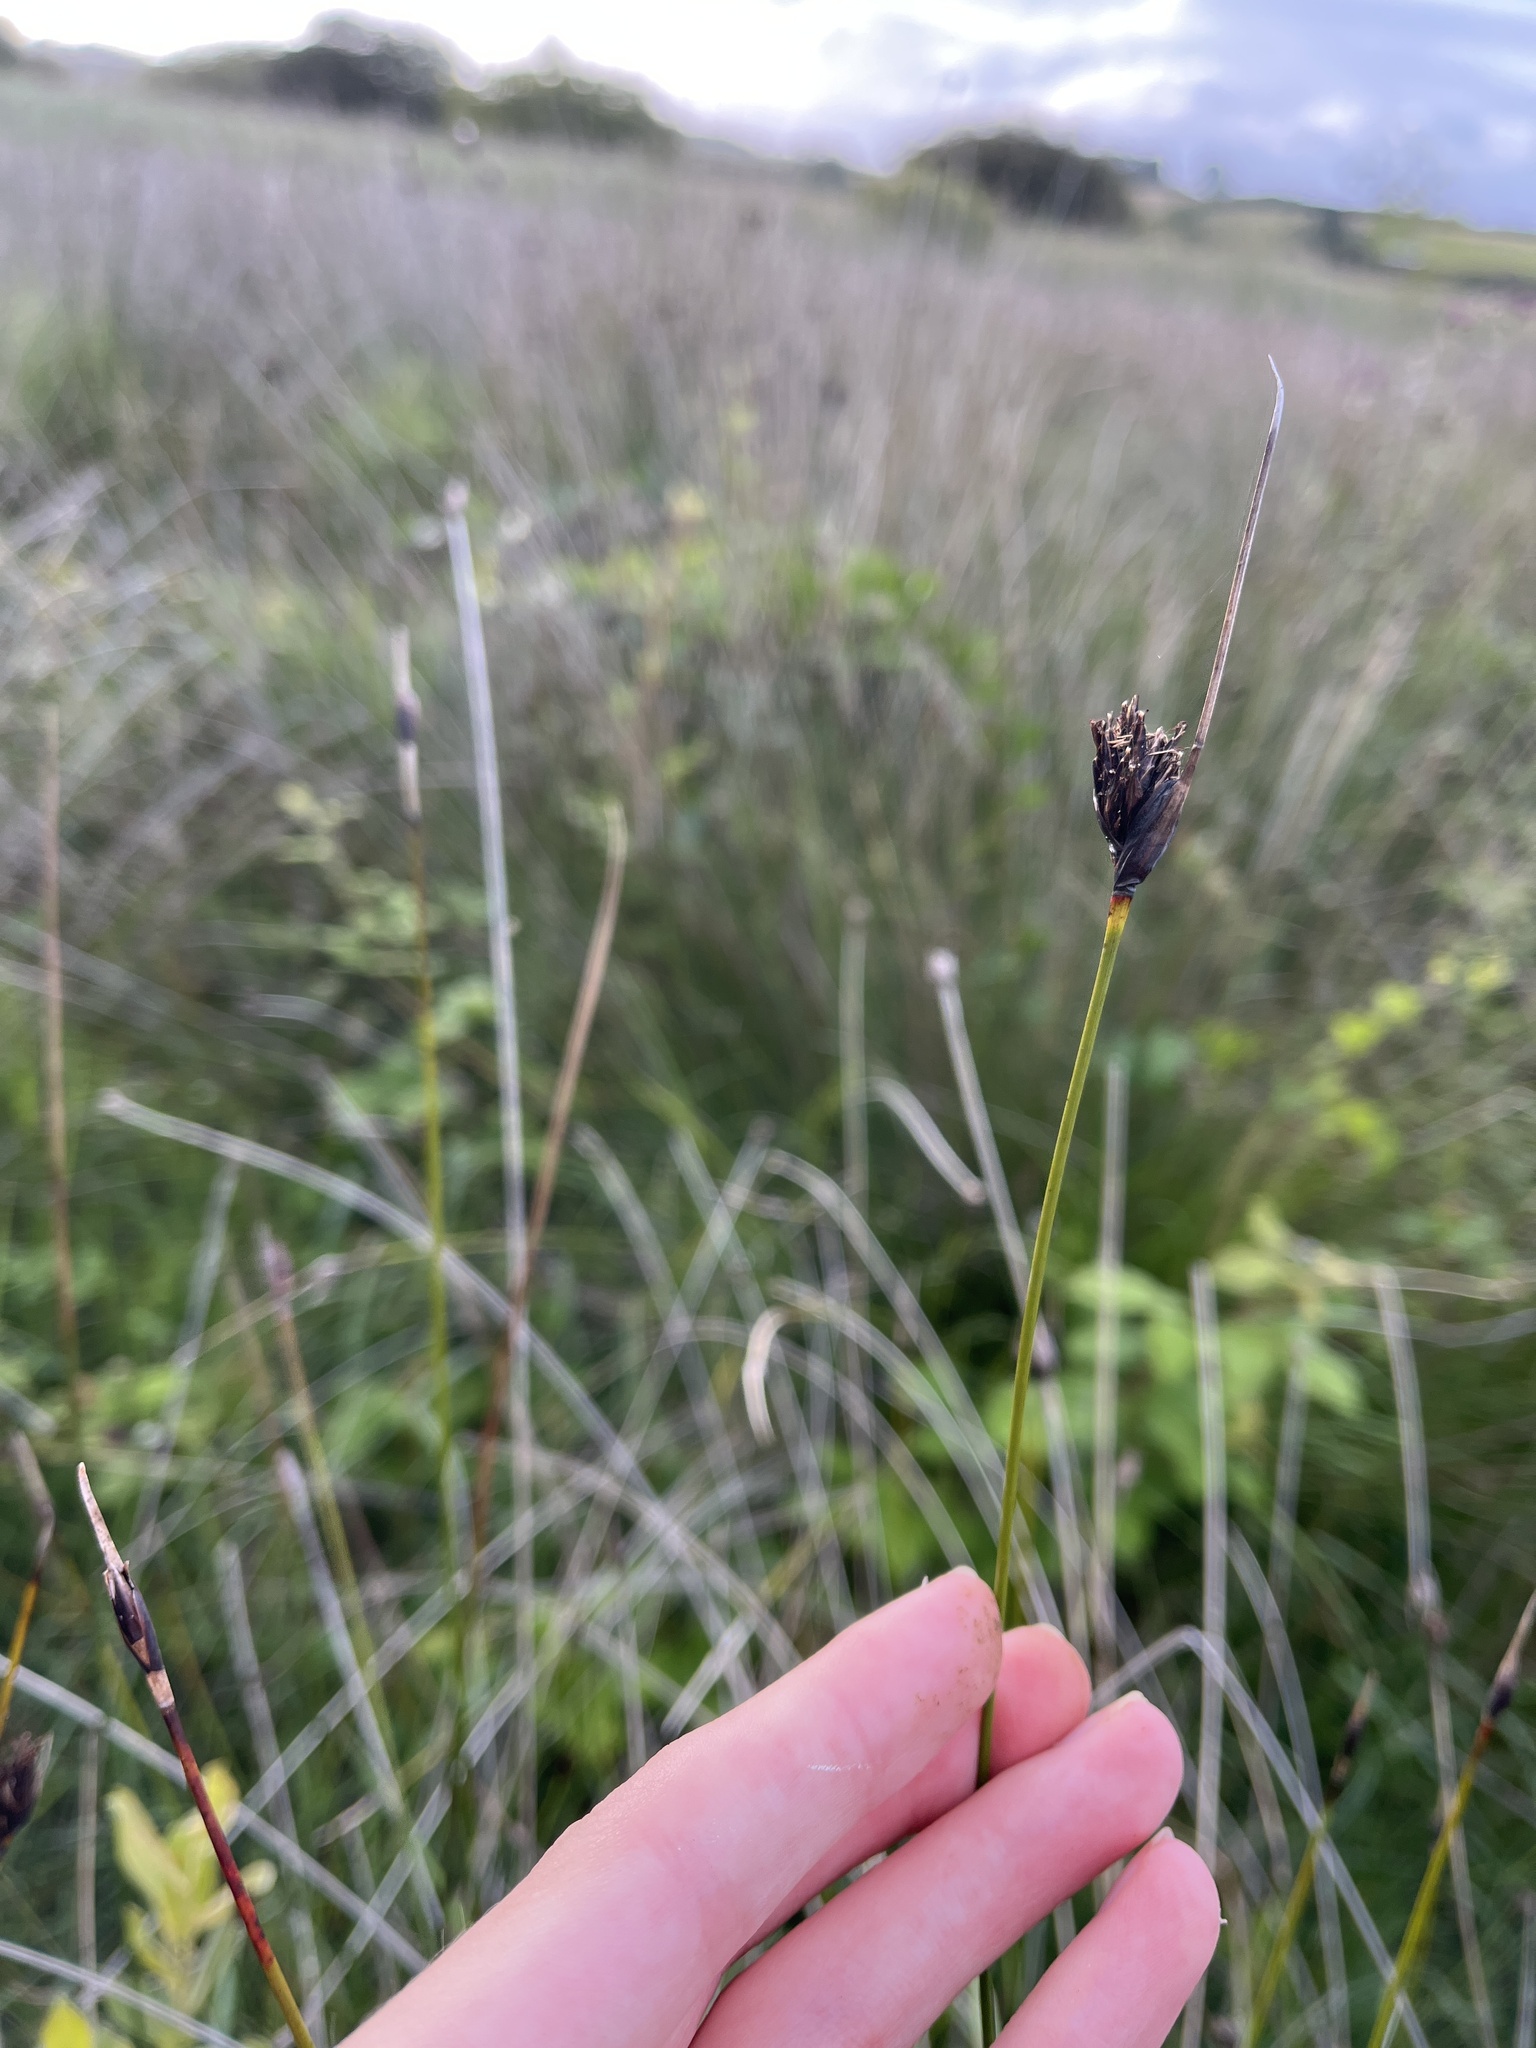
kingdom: Plantae
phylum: Tracheophyta
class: Liliopsida
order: Poales
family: Cyperaceae
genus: Schoenus
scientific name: Schoenus nigricans
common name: Black bog-rush
